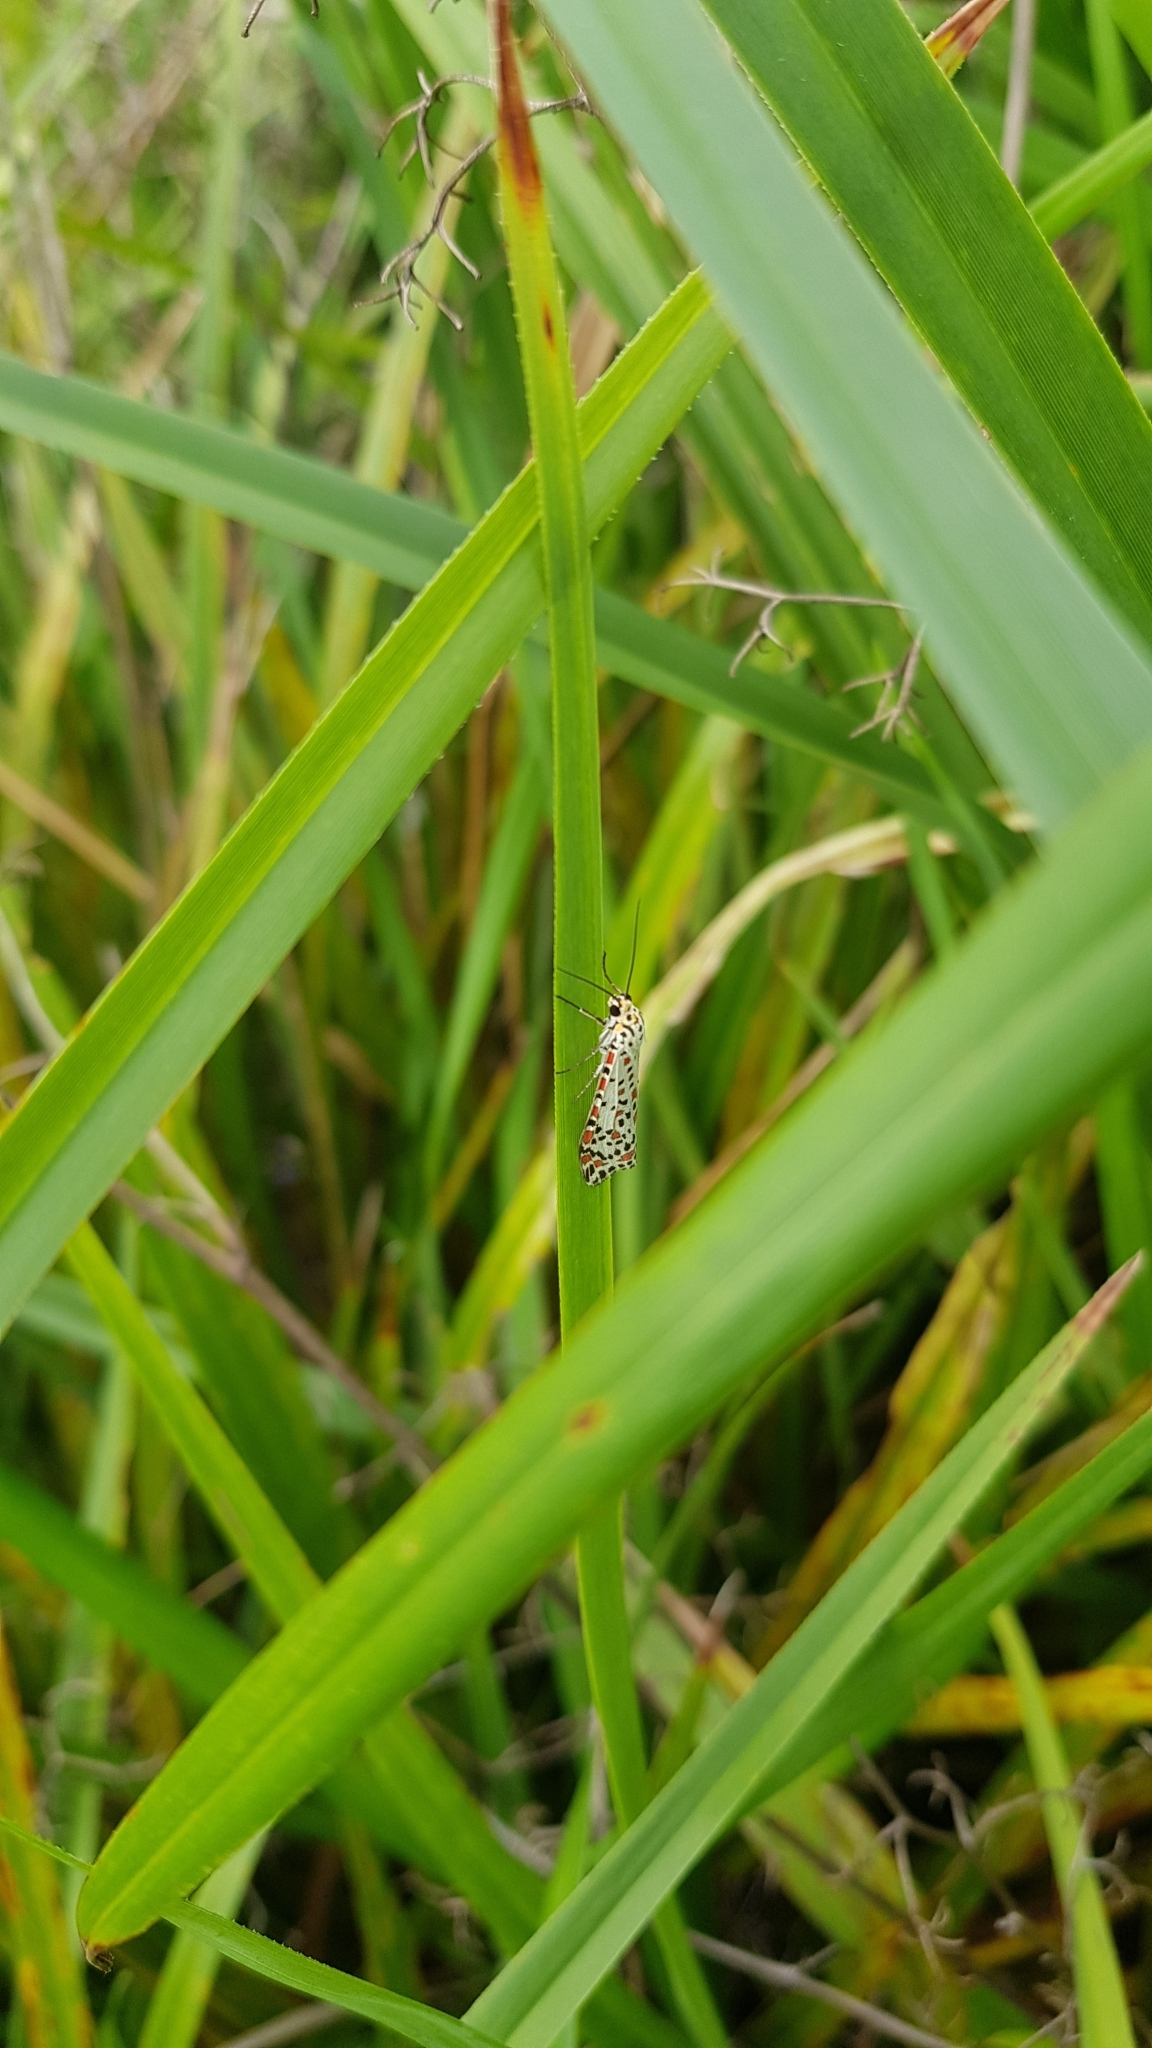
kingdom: Animalia
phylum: Arthropoda
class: Insecta
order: Lepidoptera
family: Erebidae
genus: Utetheisa
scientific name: Utetheisa pulchelloides
